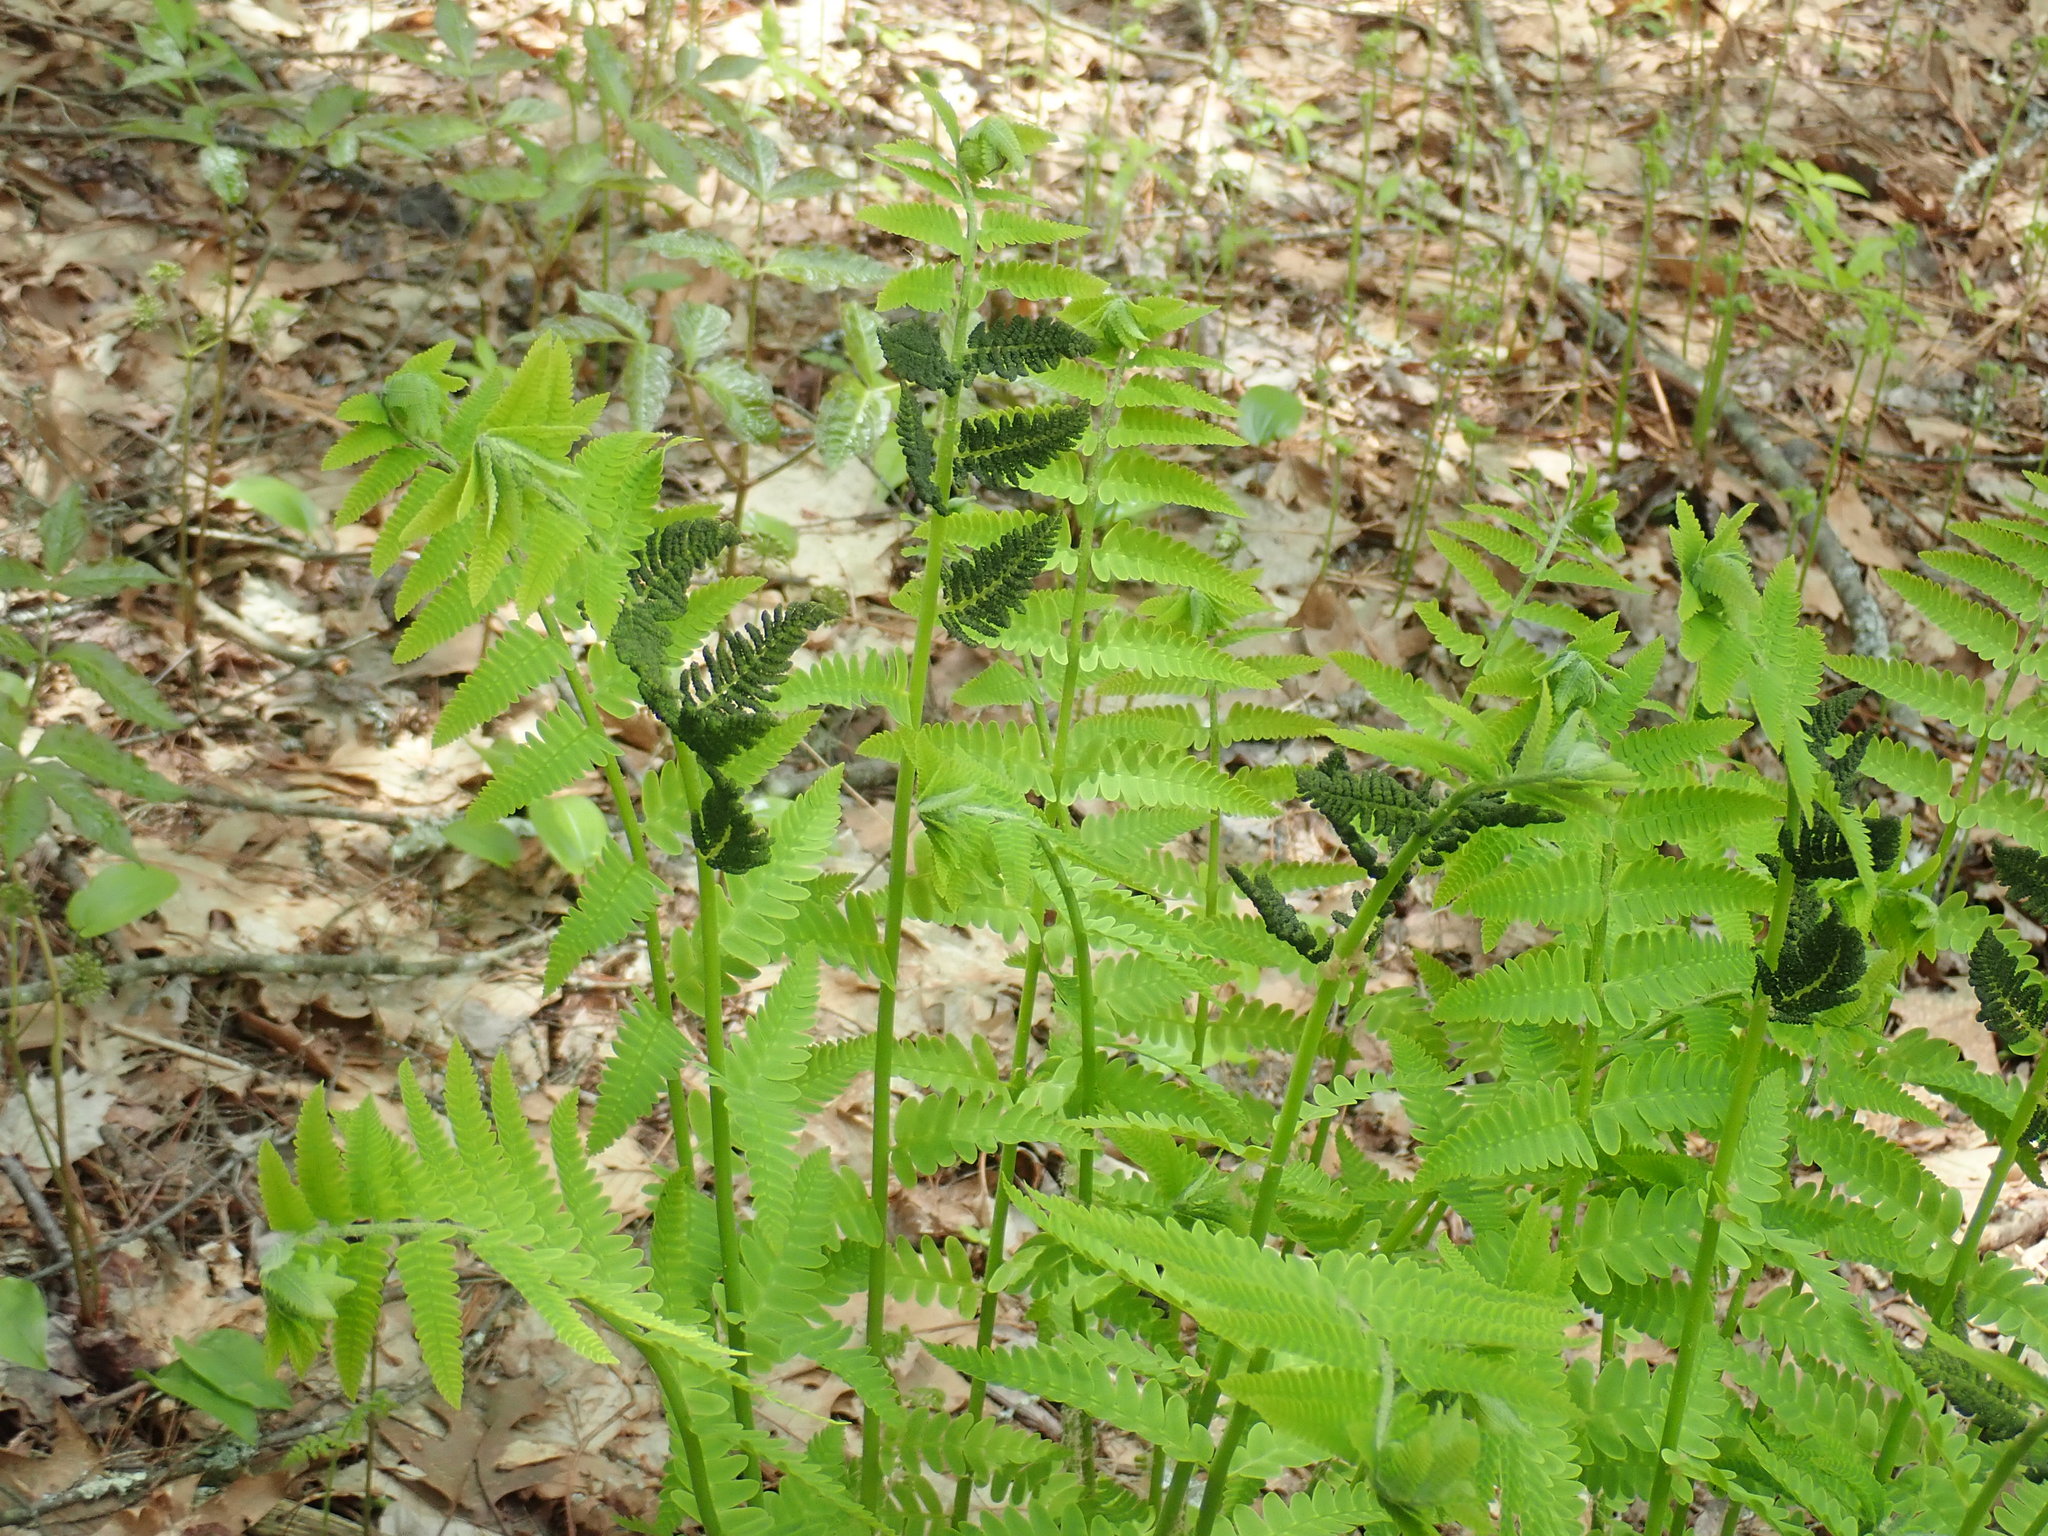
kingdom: Plantae
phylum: Tracheophyta
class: Polypodiopsida
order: Osmundales
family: Osmundaceae
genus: Claytosmunda
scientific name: Claytosmunda claytoniana
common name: Clayton's fern
